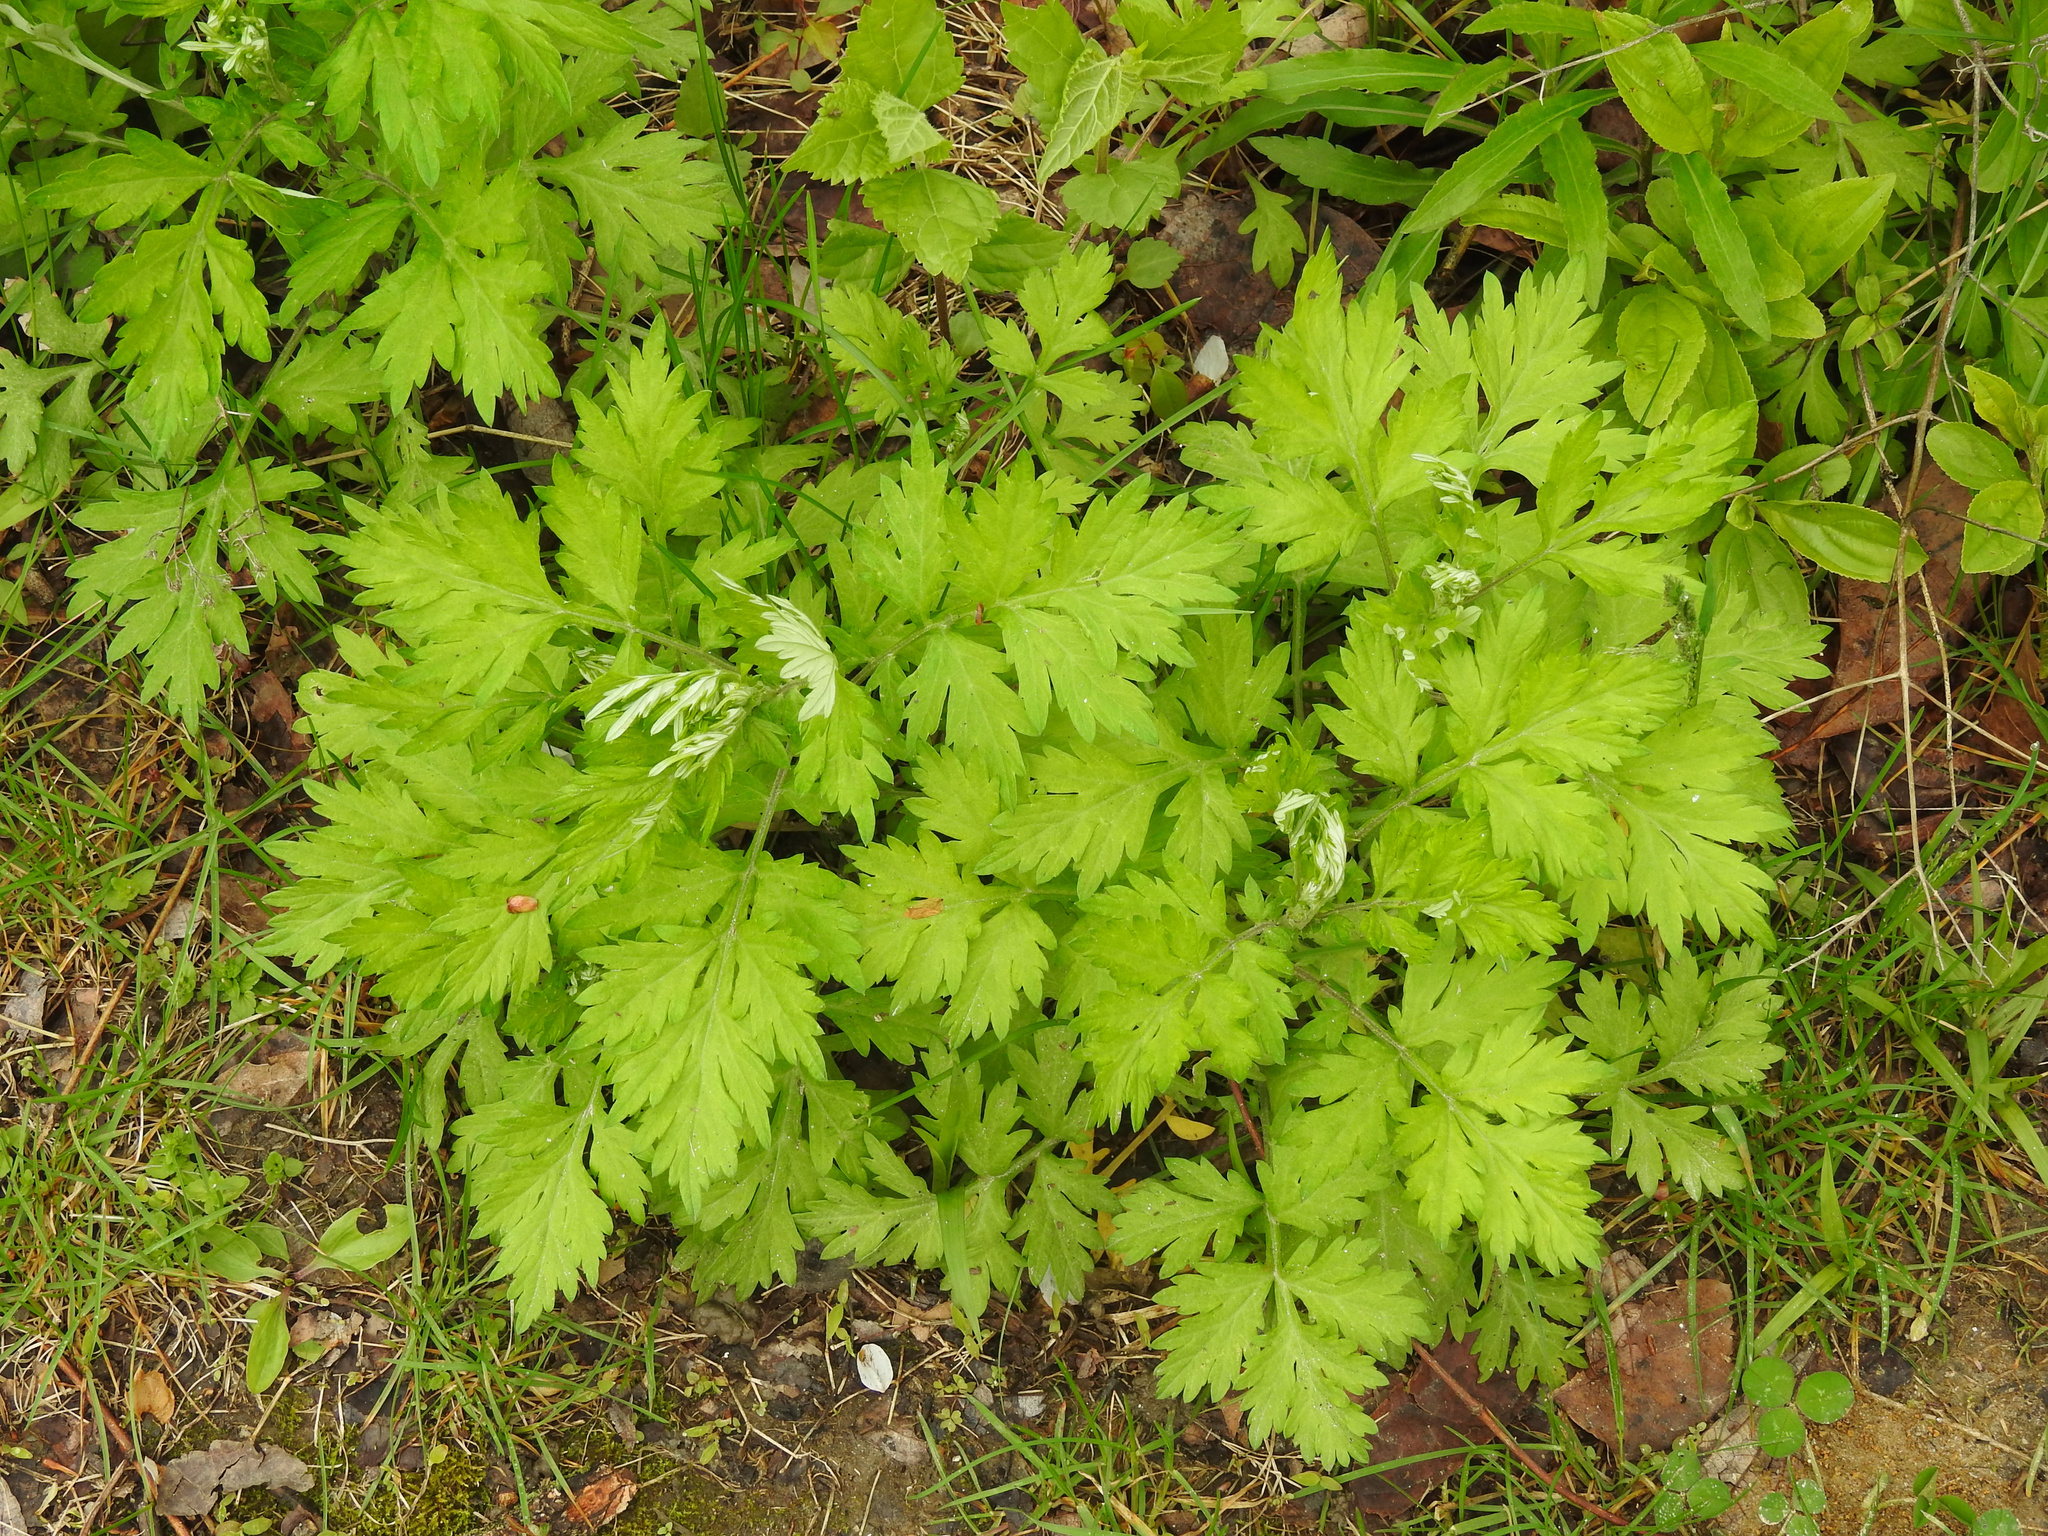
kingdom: Plantae
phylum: Tracheophyta
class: Magnoliopsida
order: Asterales
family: Asteraceae
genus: Artemisia
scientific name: Artemisia vulgaris
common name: Mugwort
